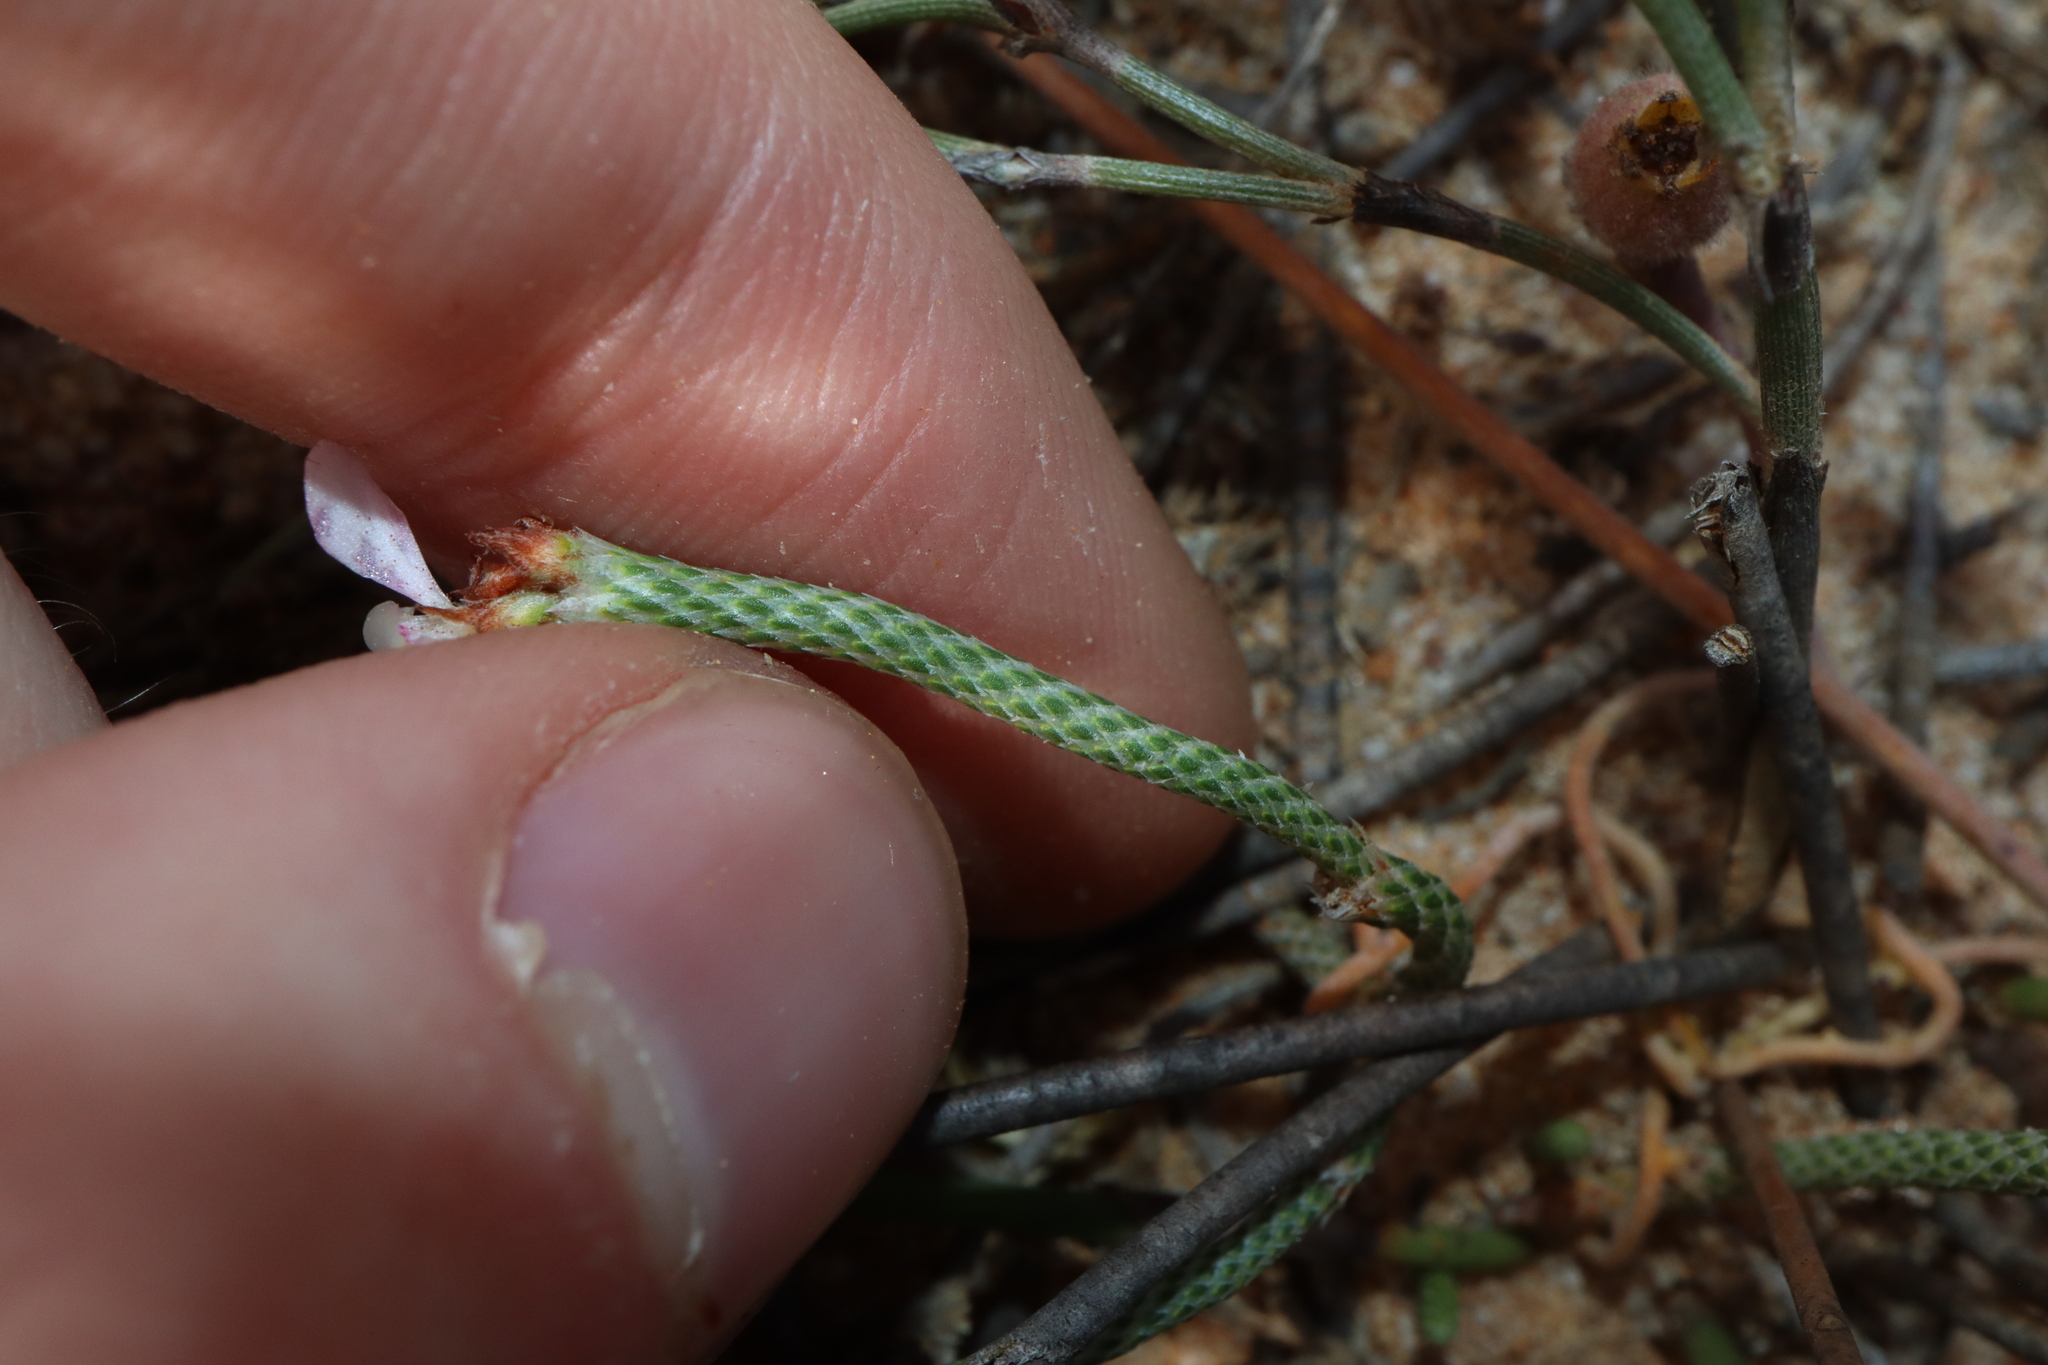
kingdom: Plantae
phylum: Tracheophyta
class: Magnoliopsida
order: Asterales
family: Stylidiaceae
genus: Stylidium
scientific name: Stylidium preissii
